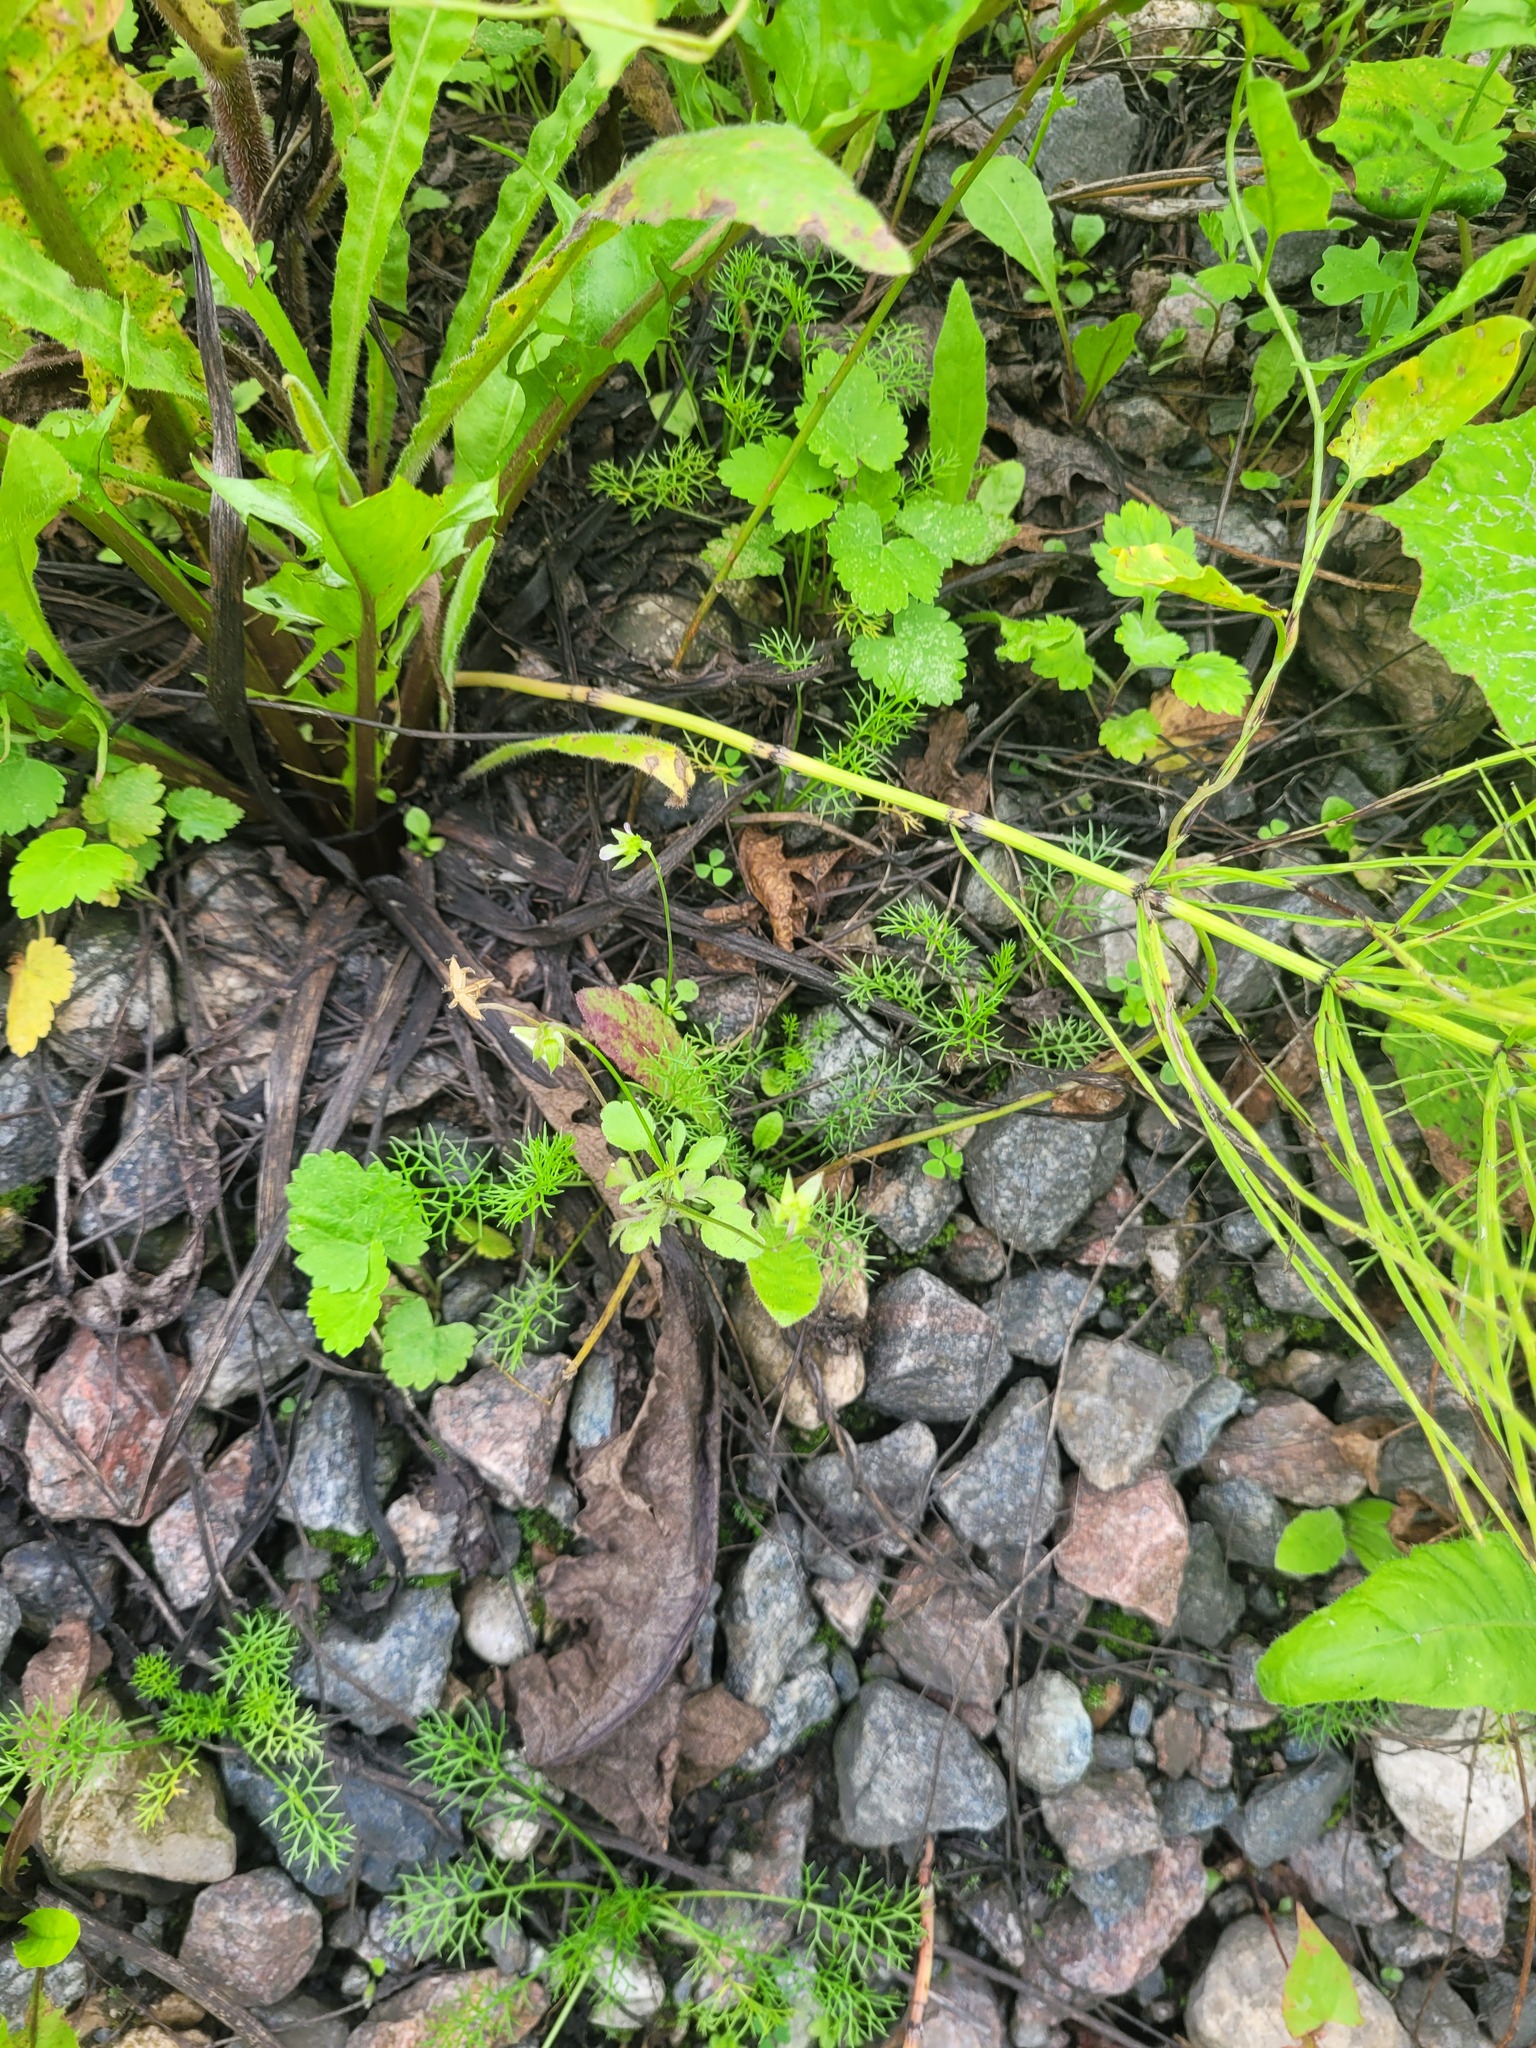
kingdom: Plantae
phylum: Tracheophyta
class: Magnoliopsida
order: Malpighiales
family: Violaceae
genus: Viola
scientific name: Viola arvensis
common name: Field pansy
